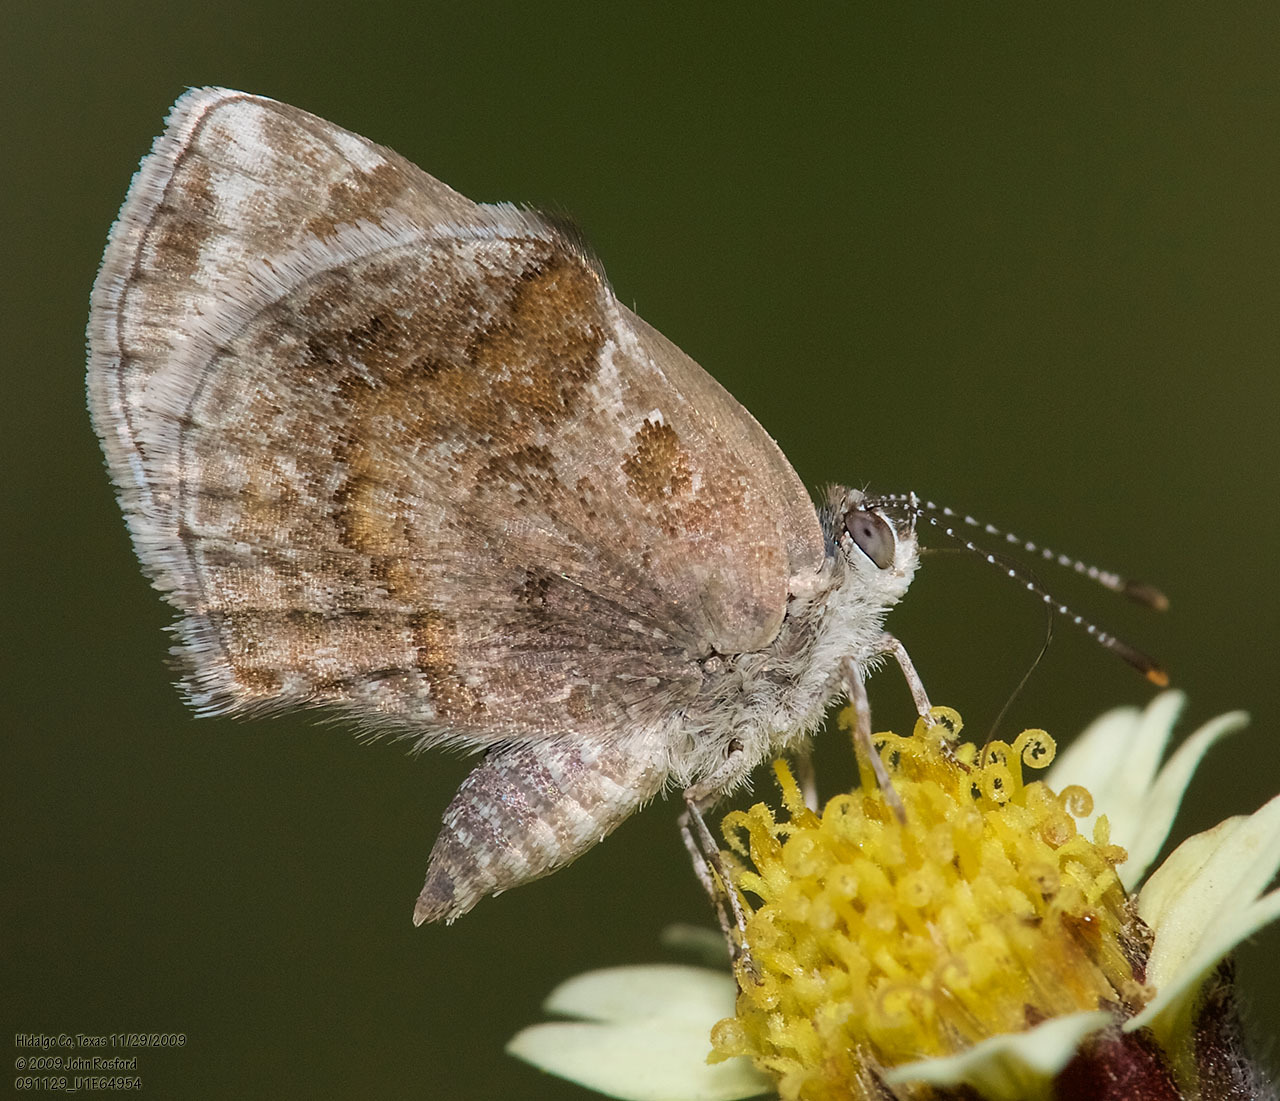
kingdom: Animalia
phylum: Arthropoda
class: Insecta
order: Lepidoptera
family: Lycaenidae
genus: Strymon
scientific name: Strymon bazochii
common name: Lantana scrub-hairstreak
